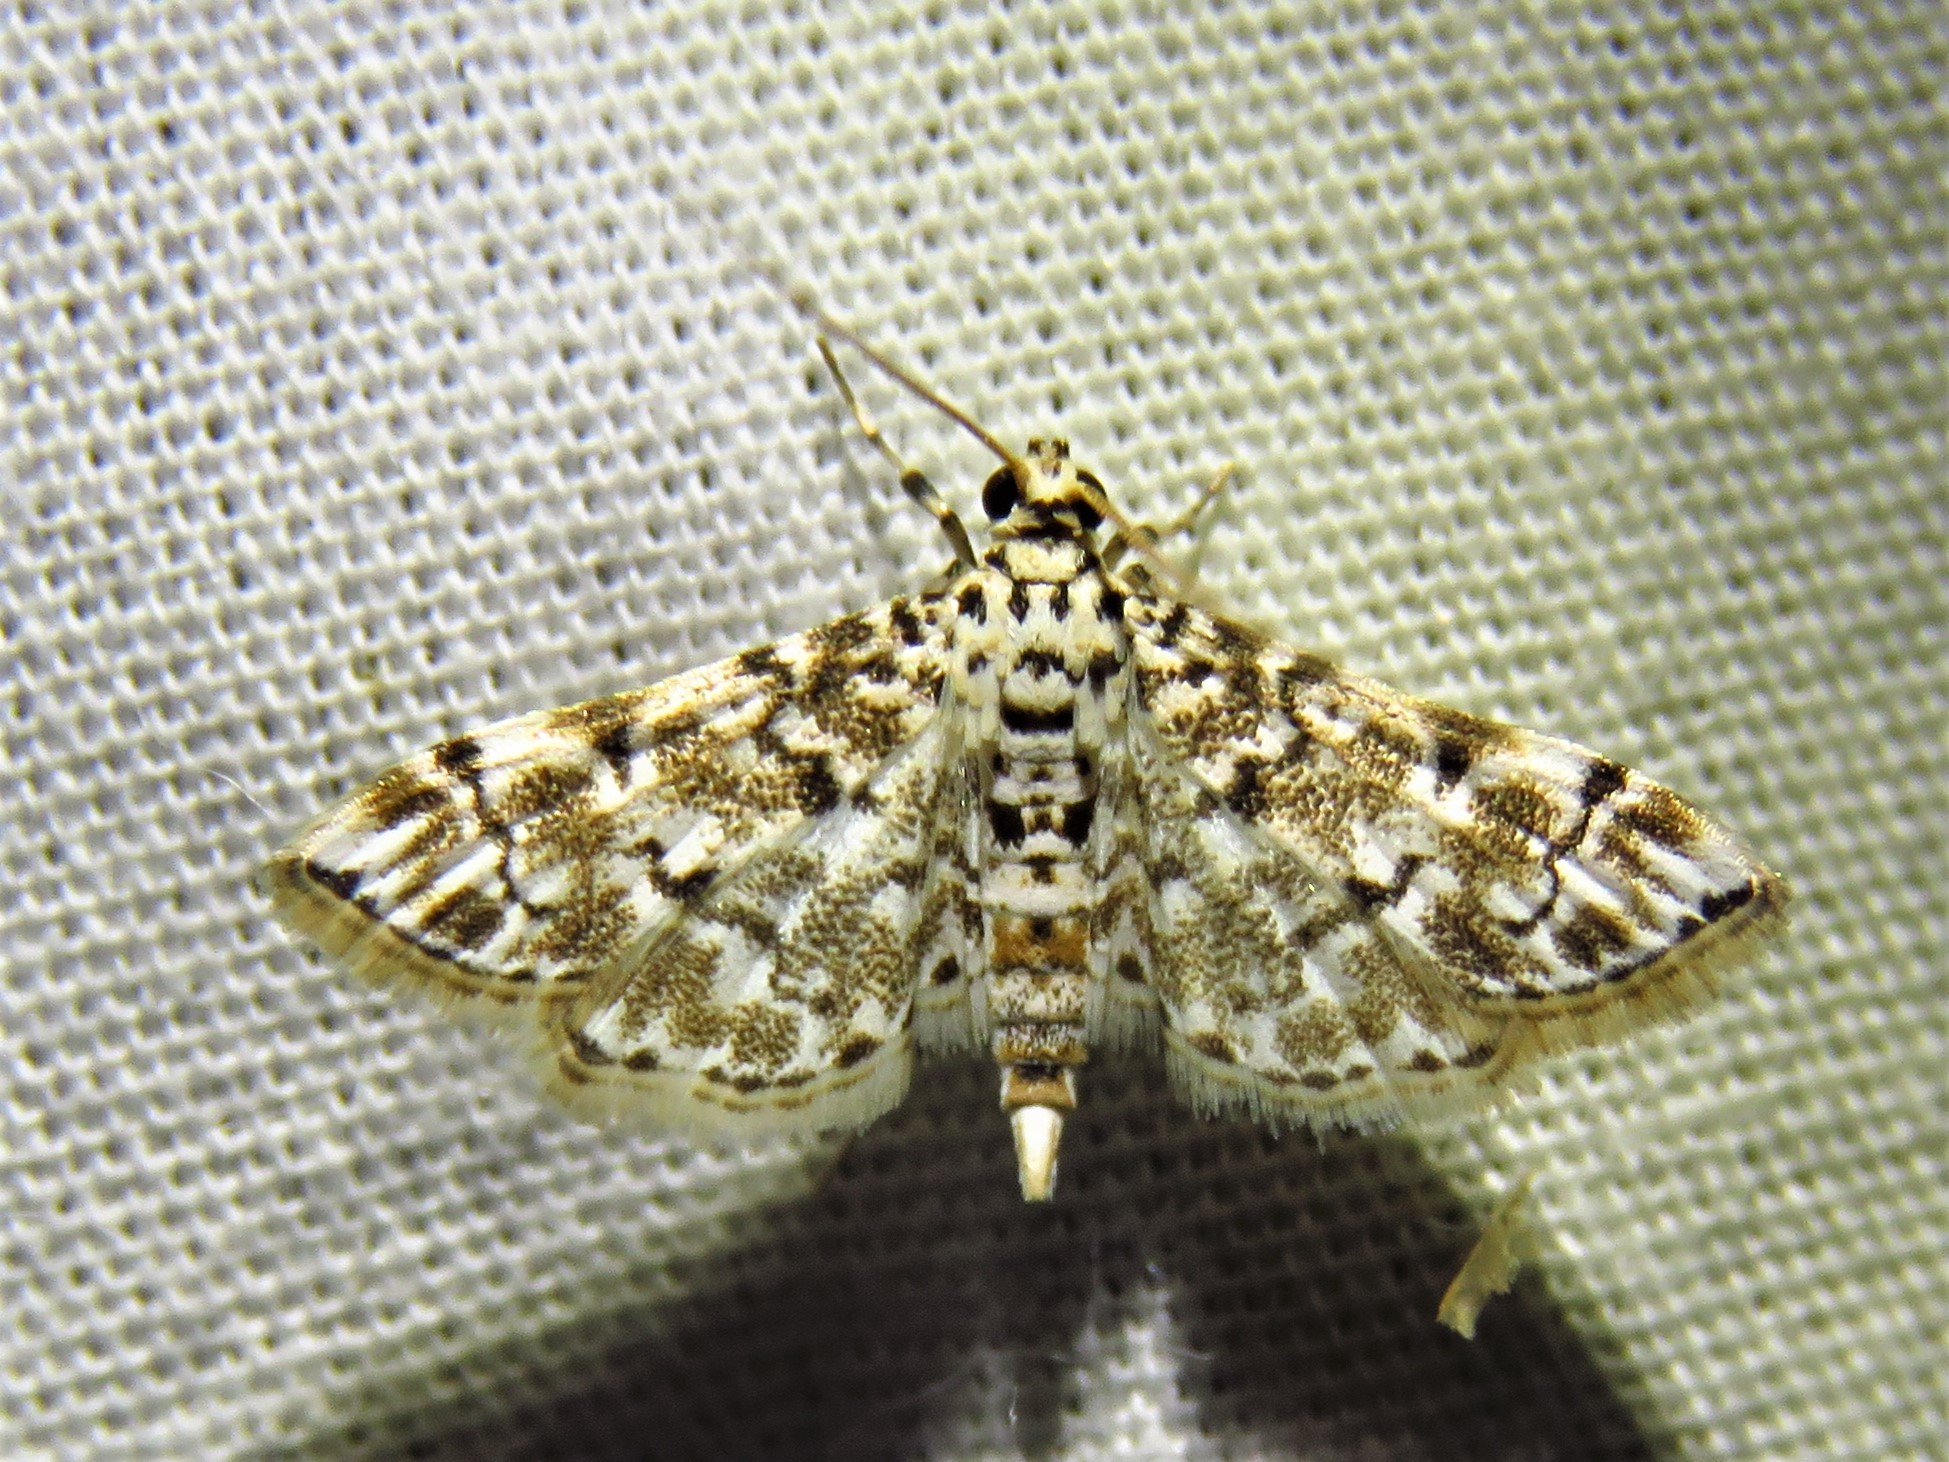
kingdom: Animalia
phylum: Arthropoda
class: Insecta
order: Lepidoptera
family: Crambidae
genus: Metoeca
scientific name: Metoeca foedalis
